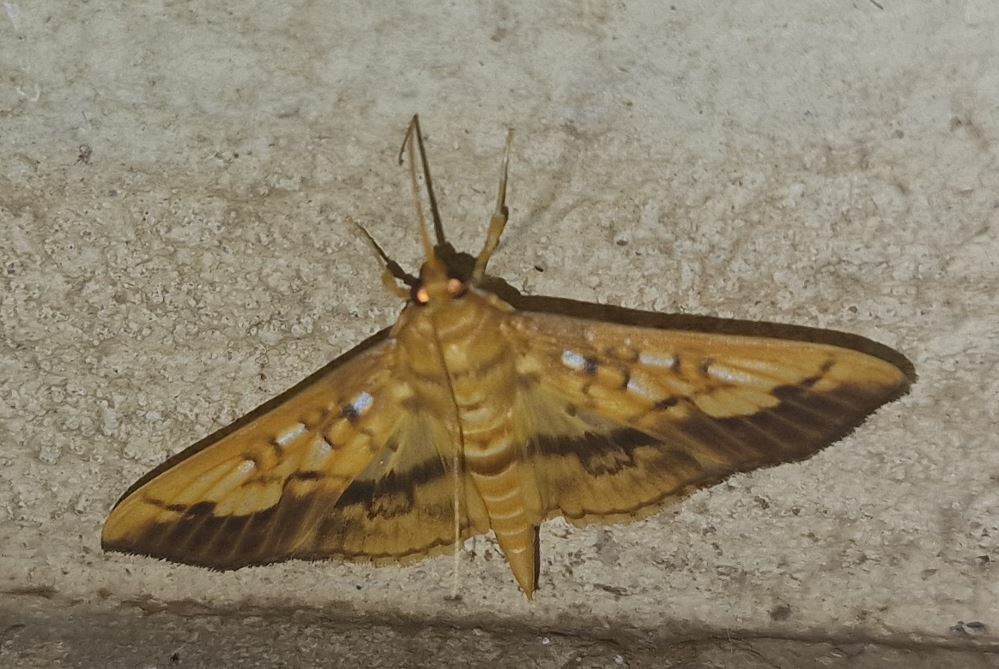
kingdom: Animalia
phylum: Arthropoda
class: Insecta
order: Lepidoptera
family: Crambidae
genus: Micromartinia
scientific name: Micromartinia mnemusalis
